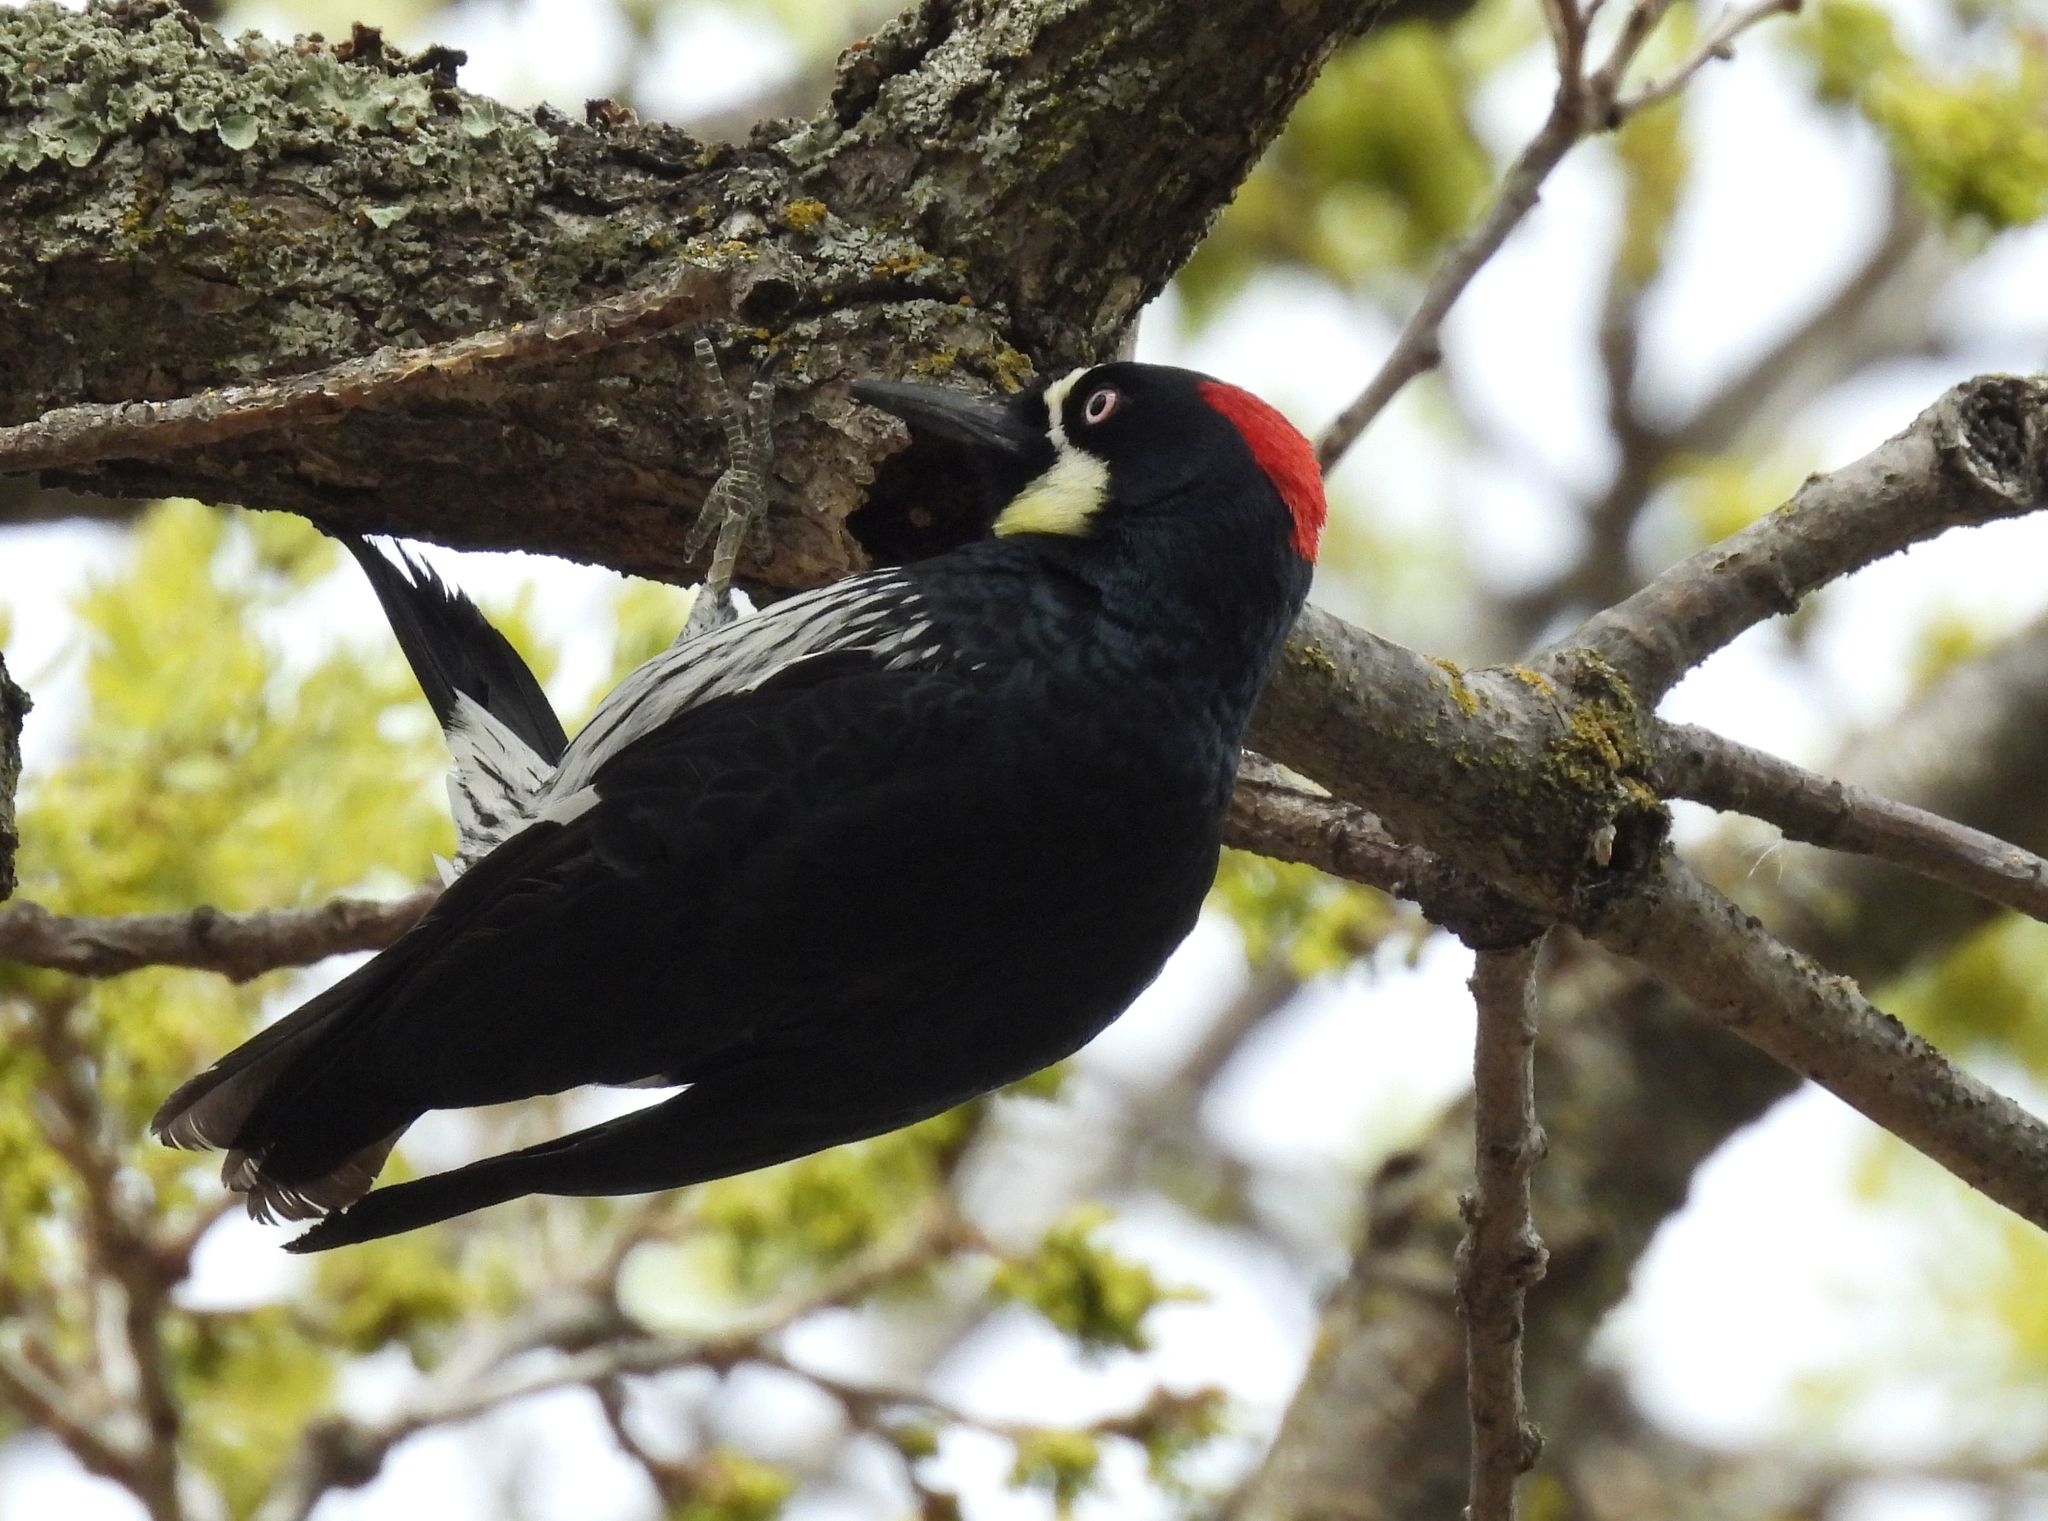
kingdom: Animalia
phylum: Chordata
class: Aves
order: Piciformes
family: Picidae
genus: Melanerpes
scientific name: Melanerpes formicivorus
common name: Acorn woodpecker
